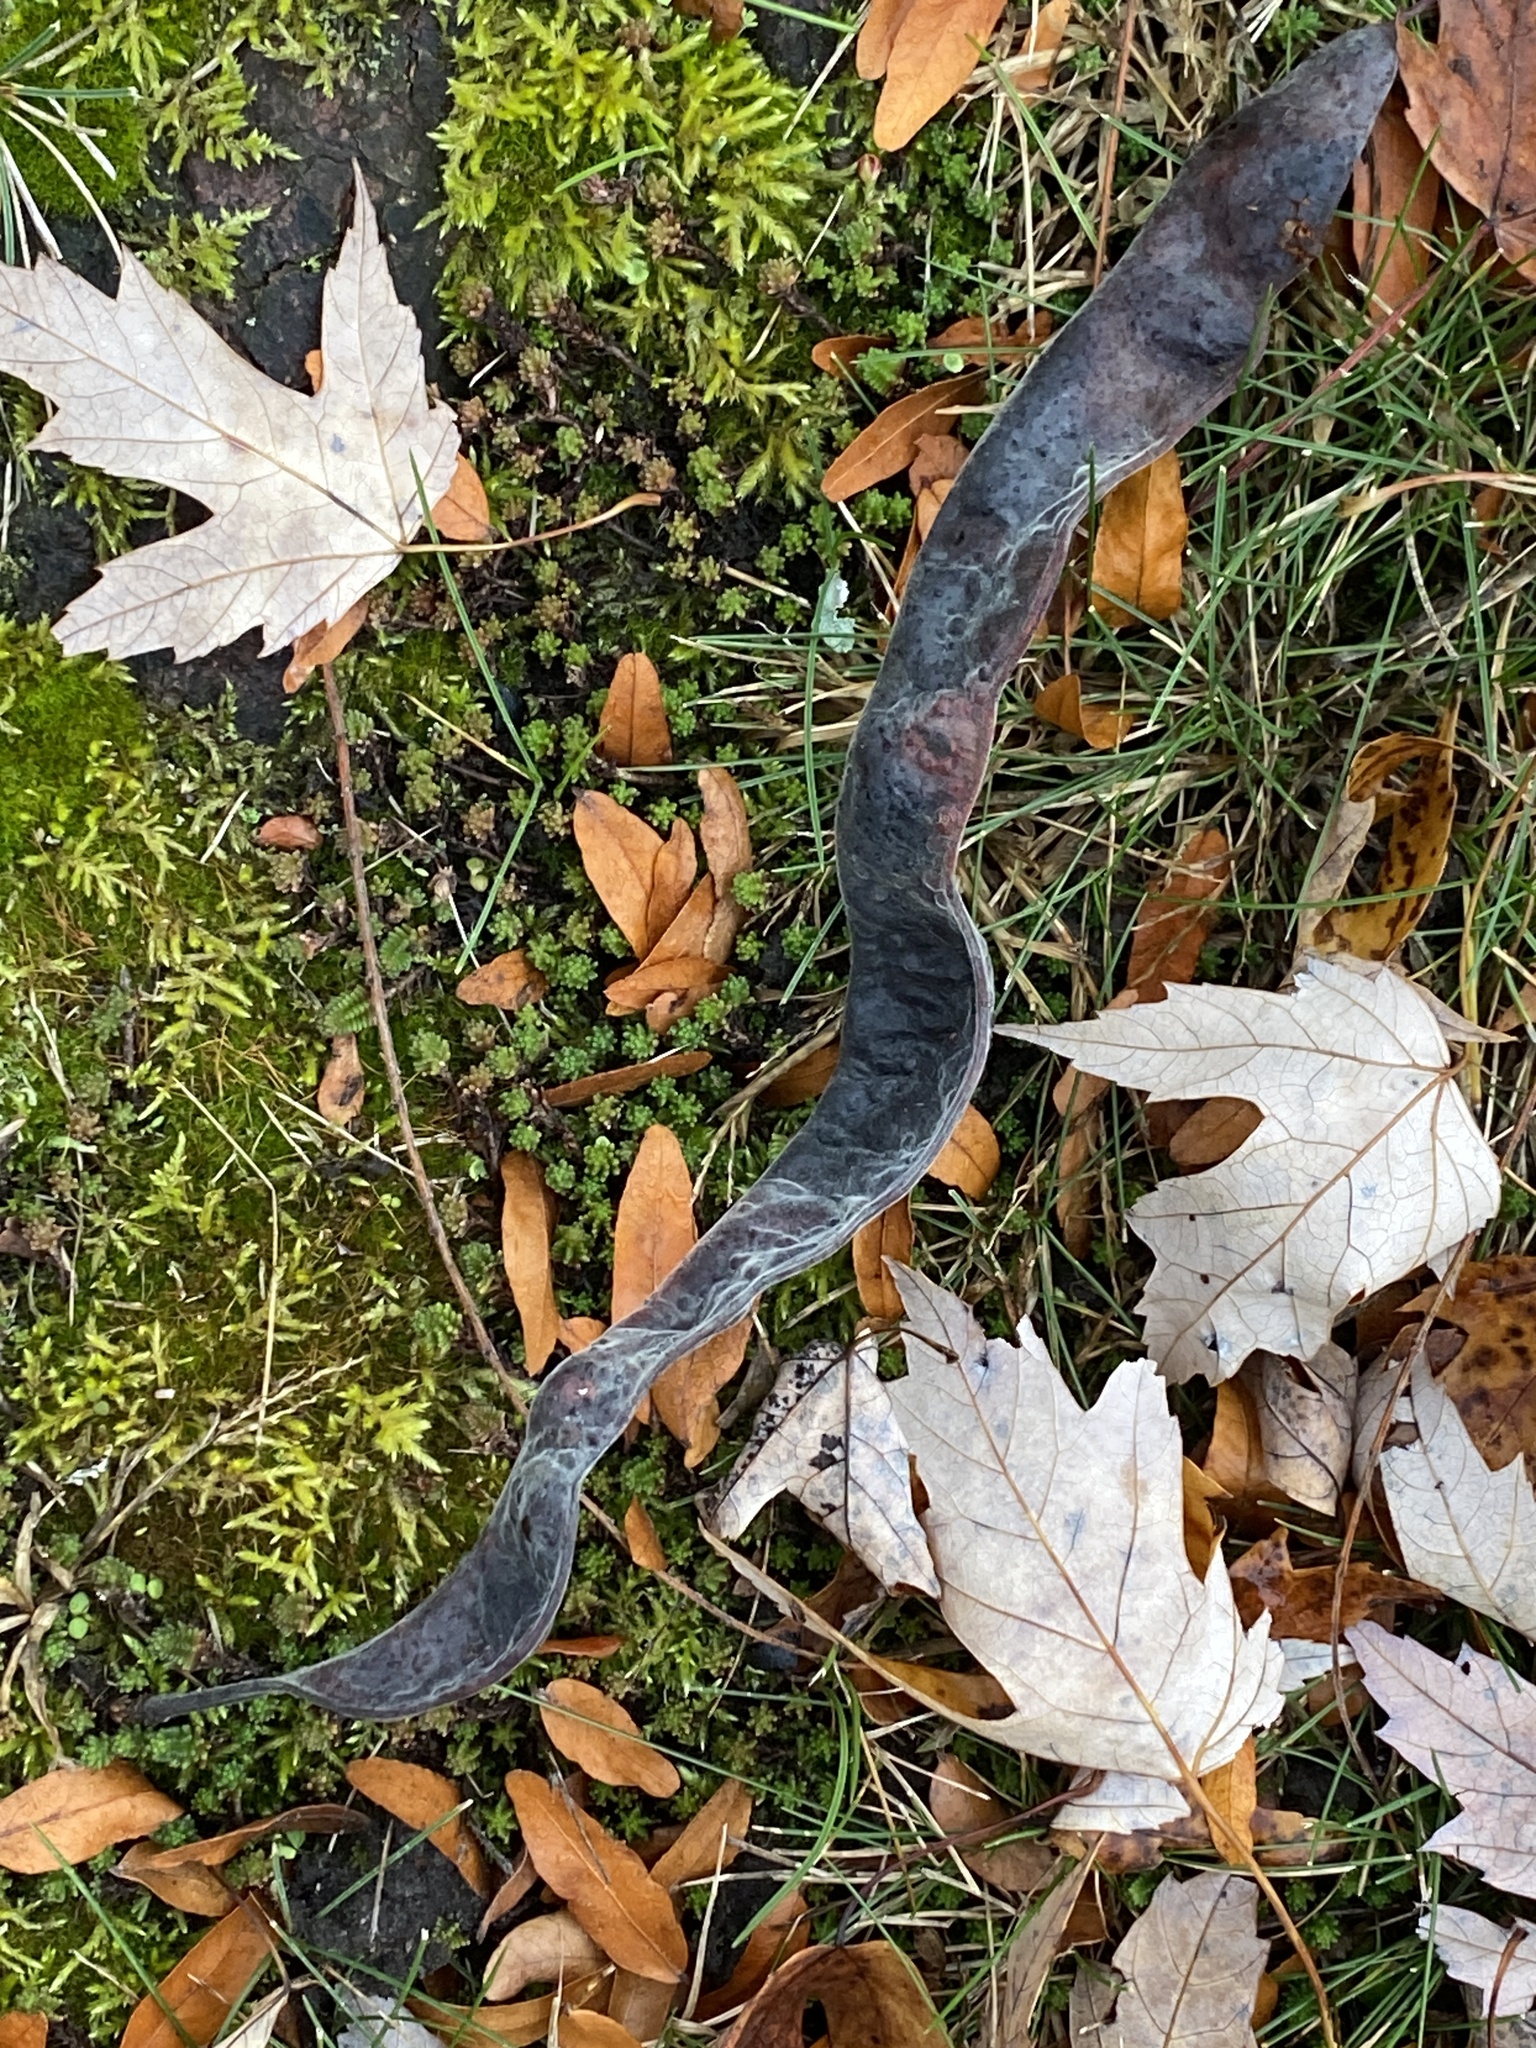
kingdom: Plantae
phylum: Tracheophyta
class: Magnoliopsida
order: Fabales
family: Fabaceae
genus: Gleditsia
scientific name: Gleditsia triacanthos
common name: Common honeylocust
